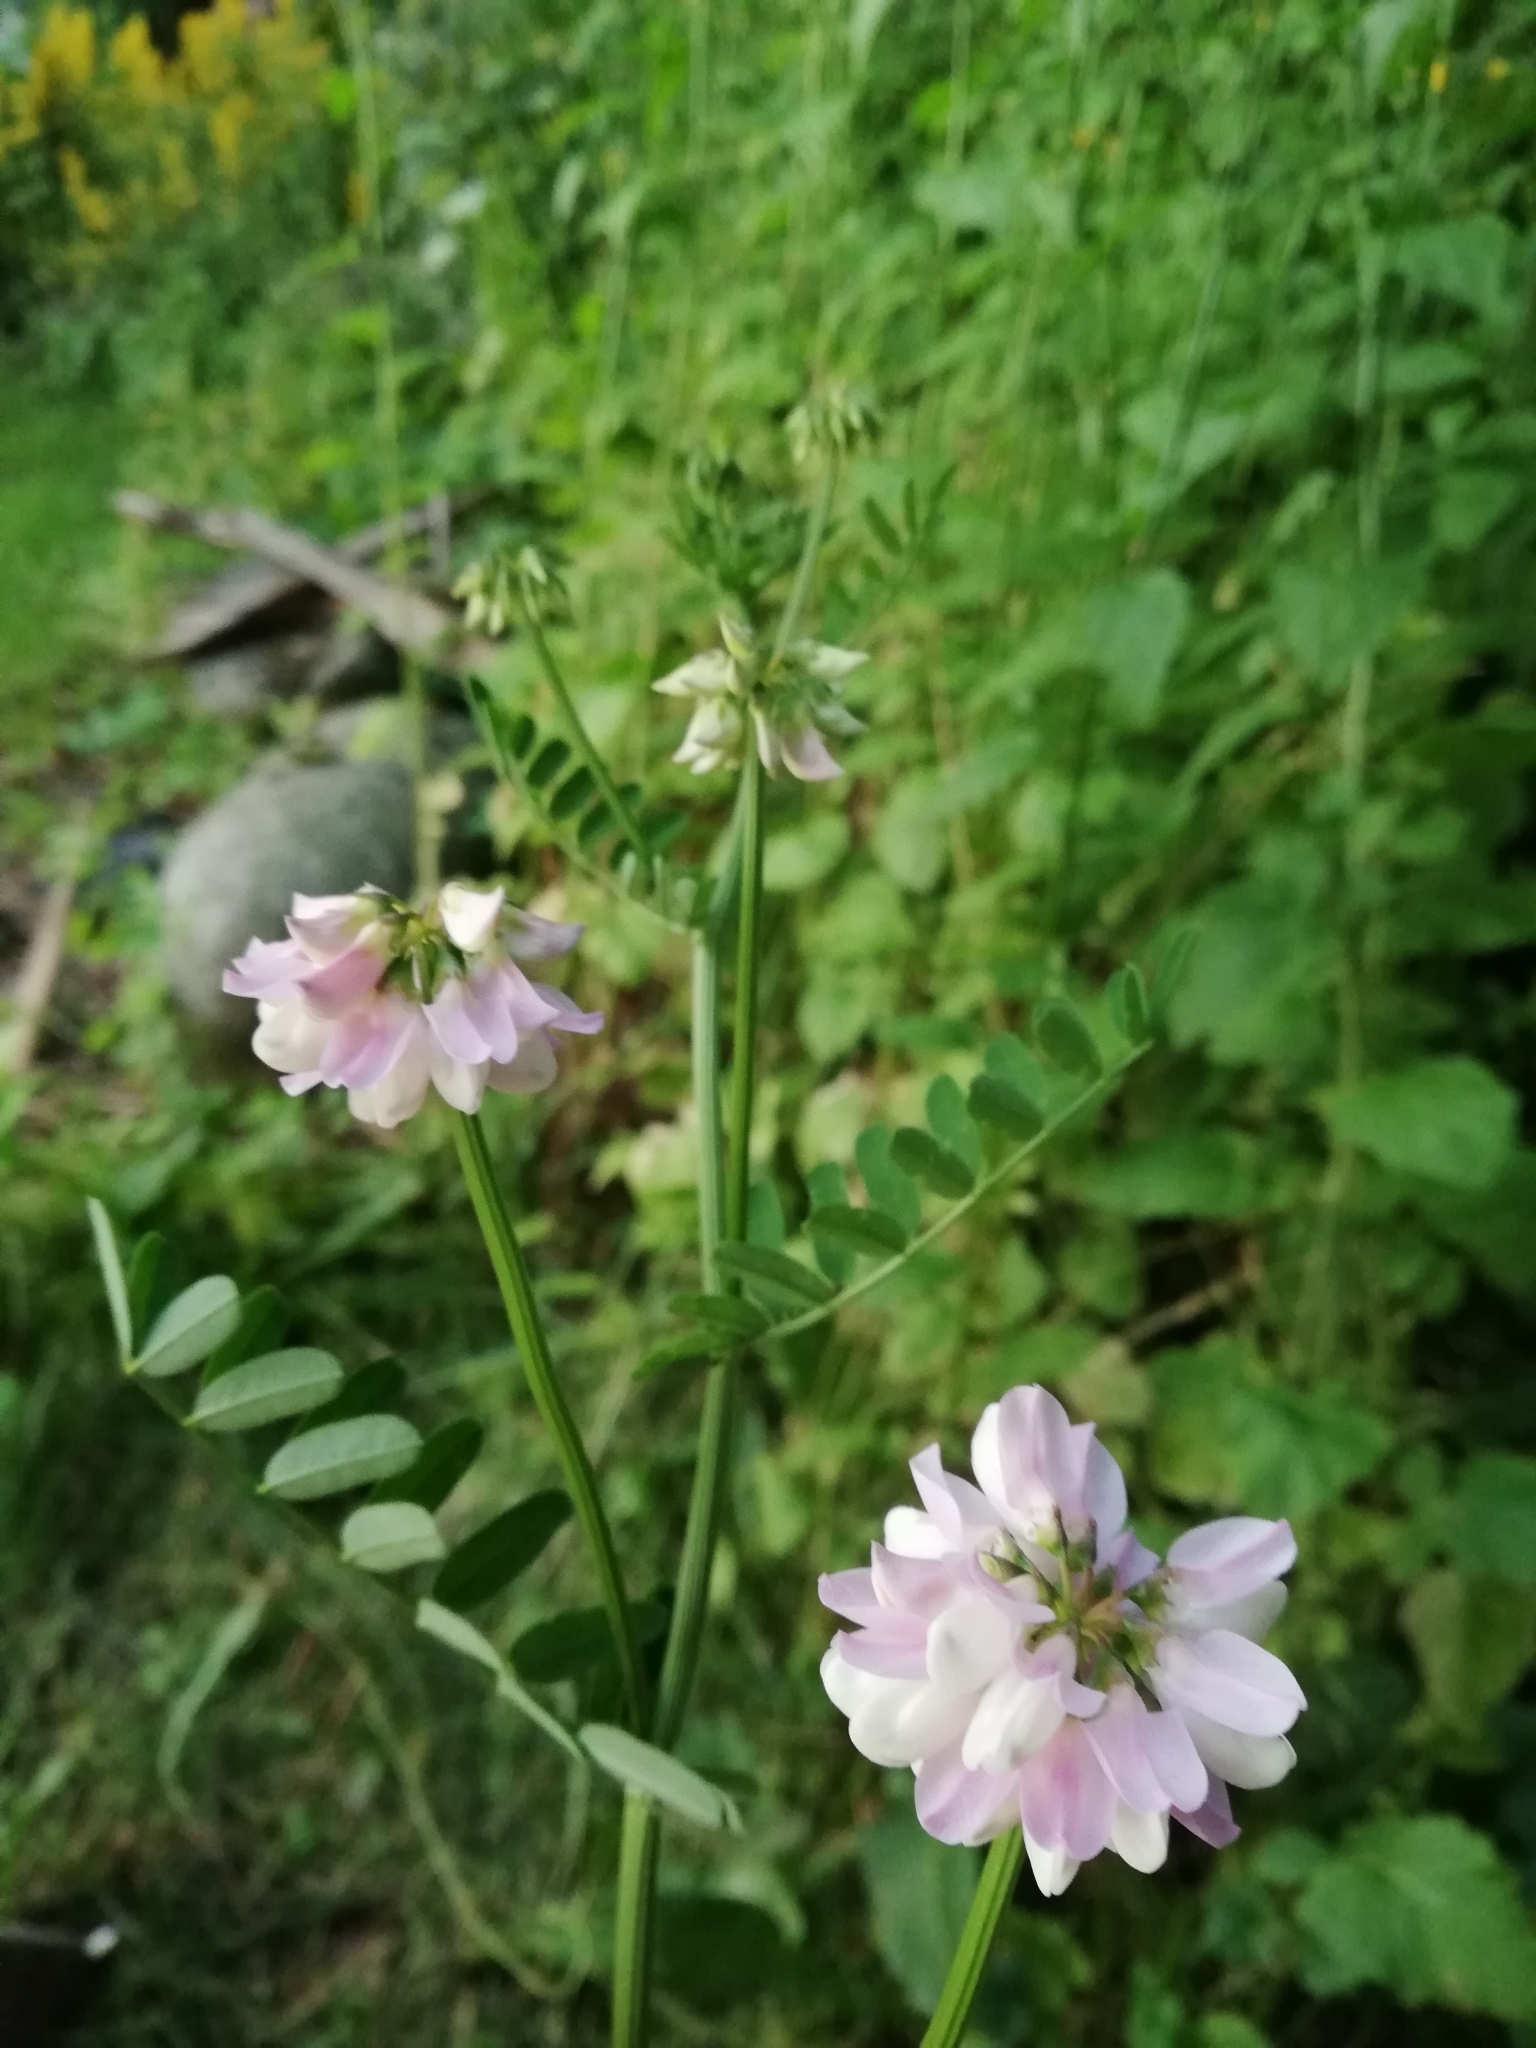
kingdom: Plantae
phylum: Tracheophyta
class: Magnoliopsida
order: Fabales
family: Fabaceae
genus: Coronilla
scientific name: Coronilla varia
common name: Crownvetch
